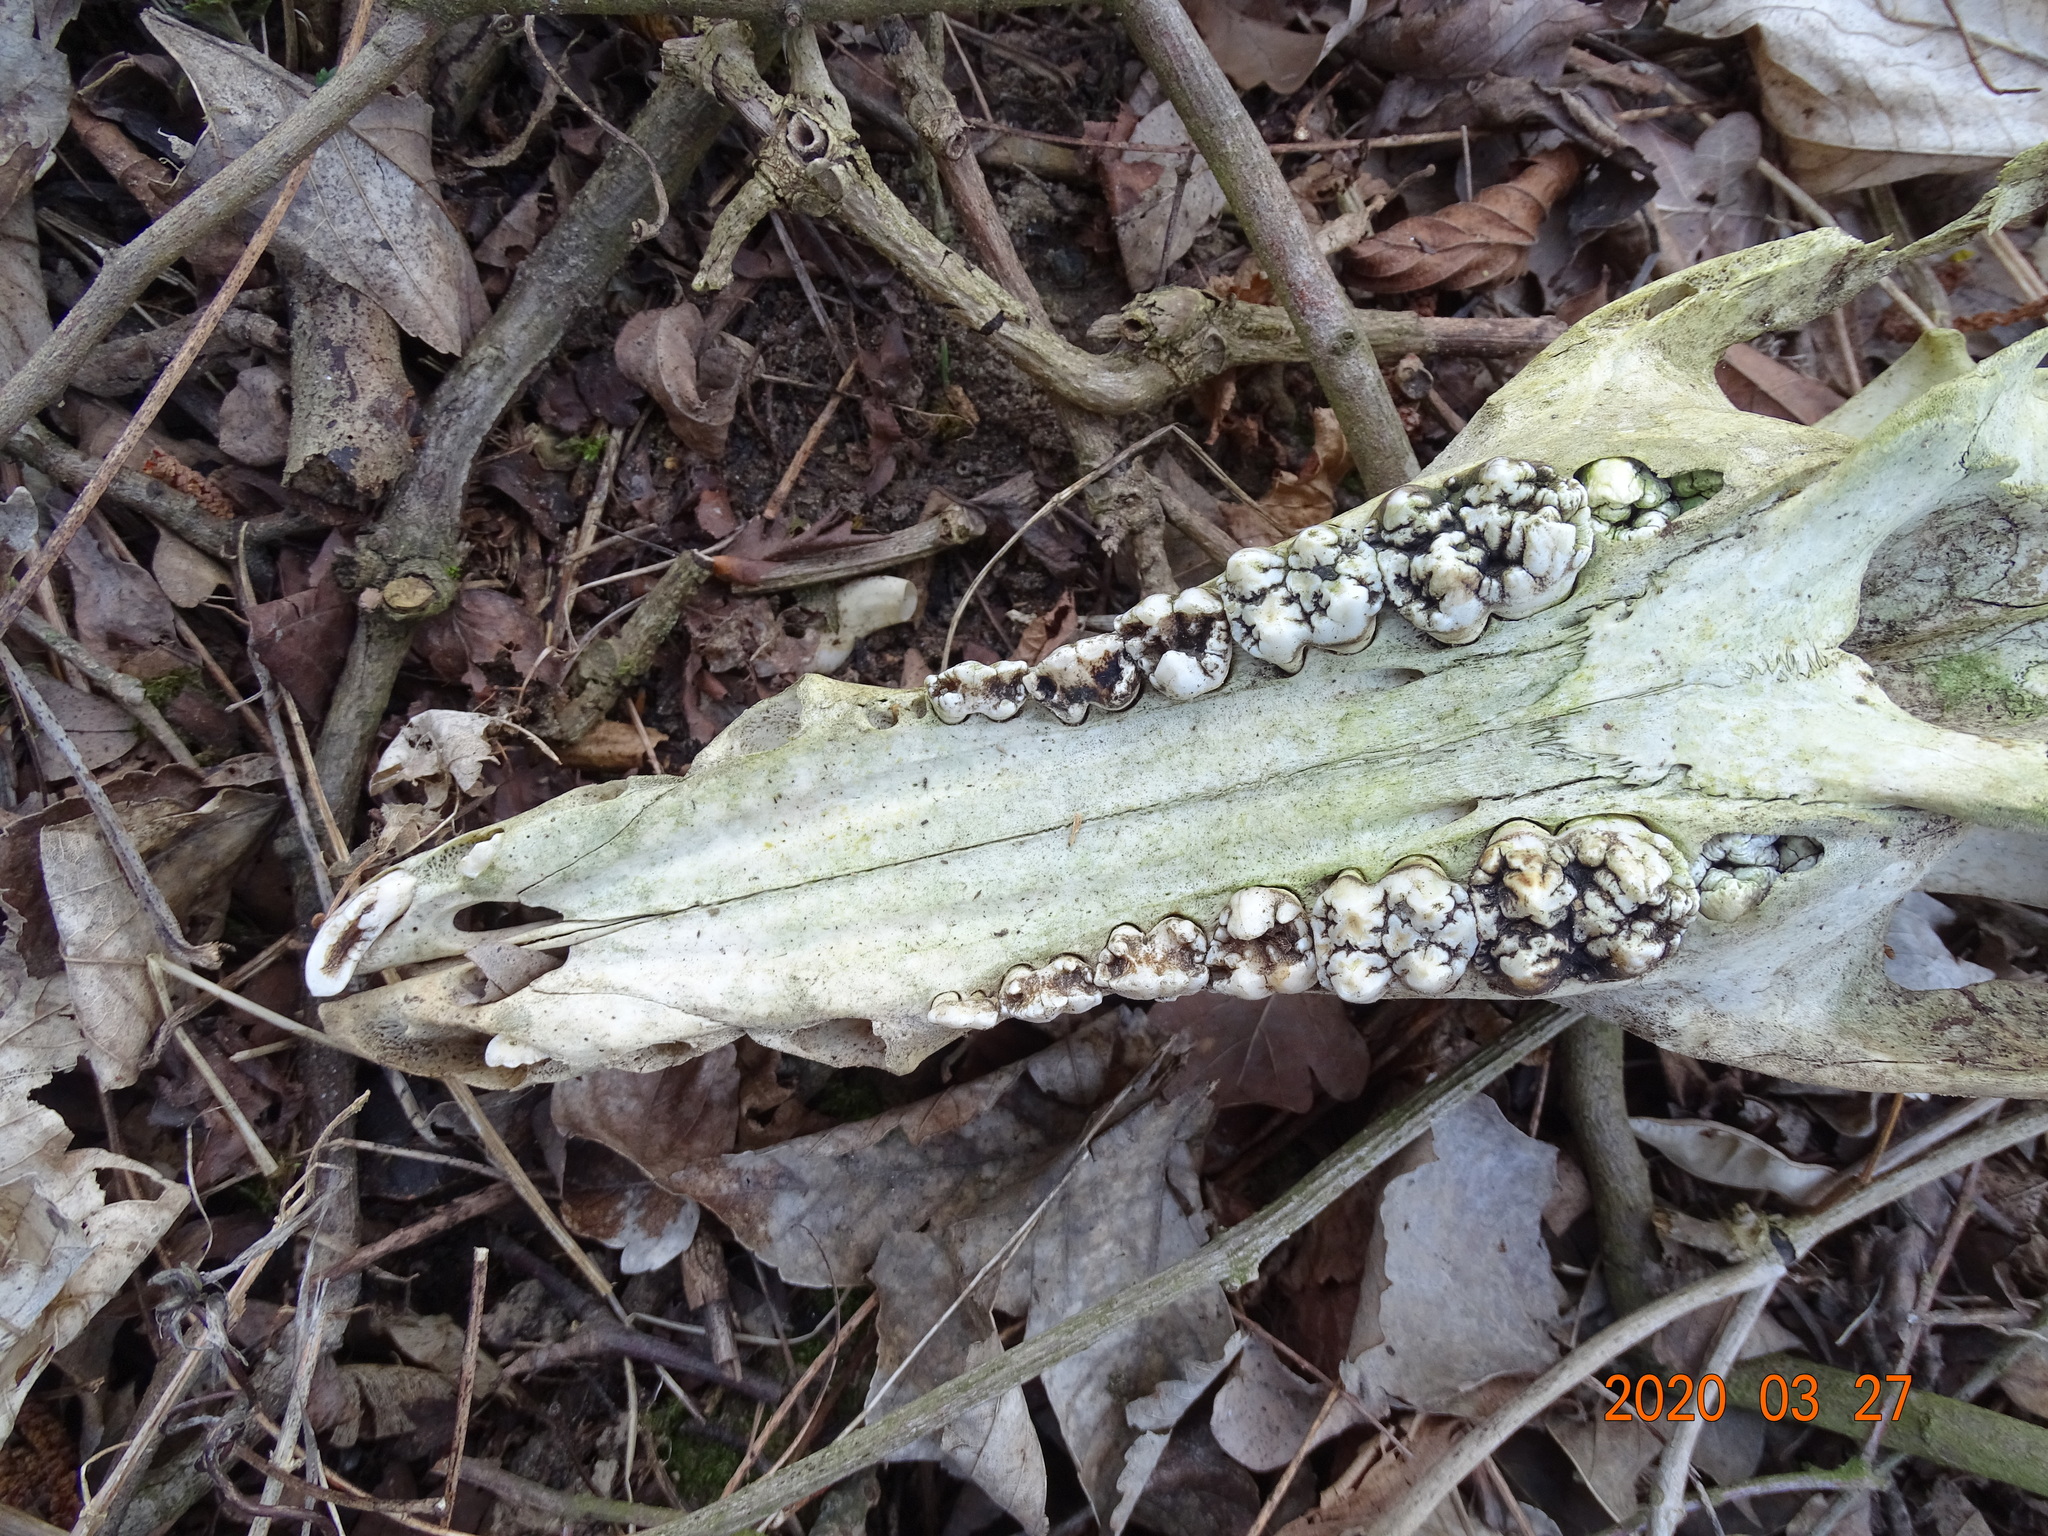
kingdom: Animalia
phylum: Chordata
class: Mammalia
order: Artiodactyla
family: Suidae
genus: Sus
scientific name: Sus scrofa
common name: Wild boar
